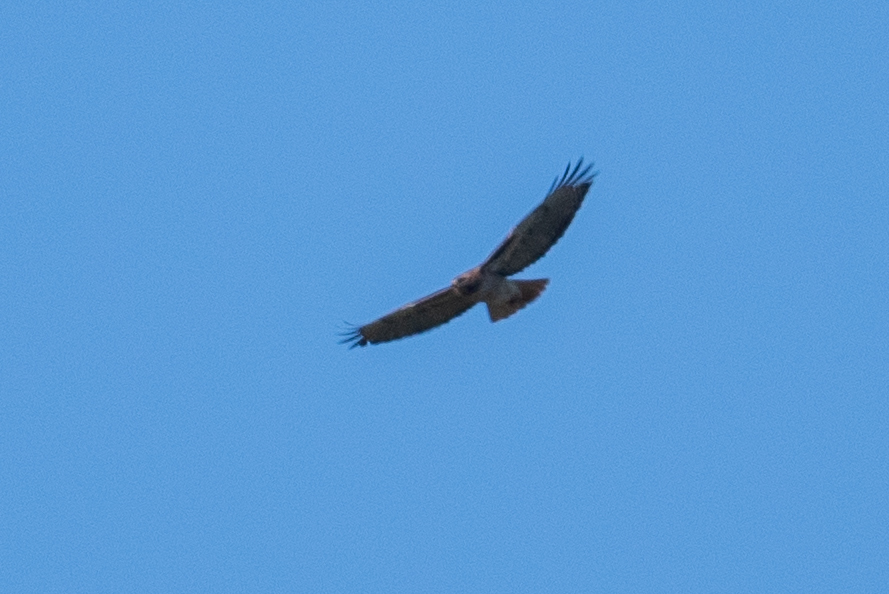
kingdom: Animalia
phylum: Chordata
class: Aves
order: Accipitriformes
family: Accipitridae
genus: Buteo
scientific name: Buteo jamaicensis
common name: Red-tailed hawk
